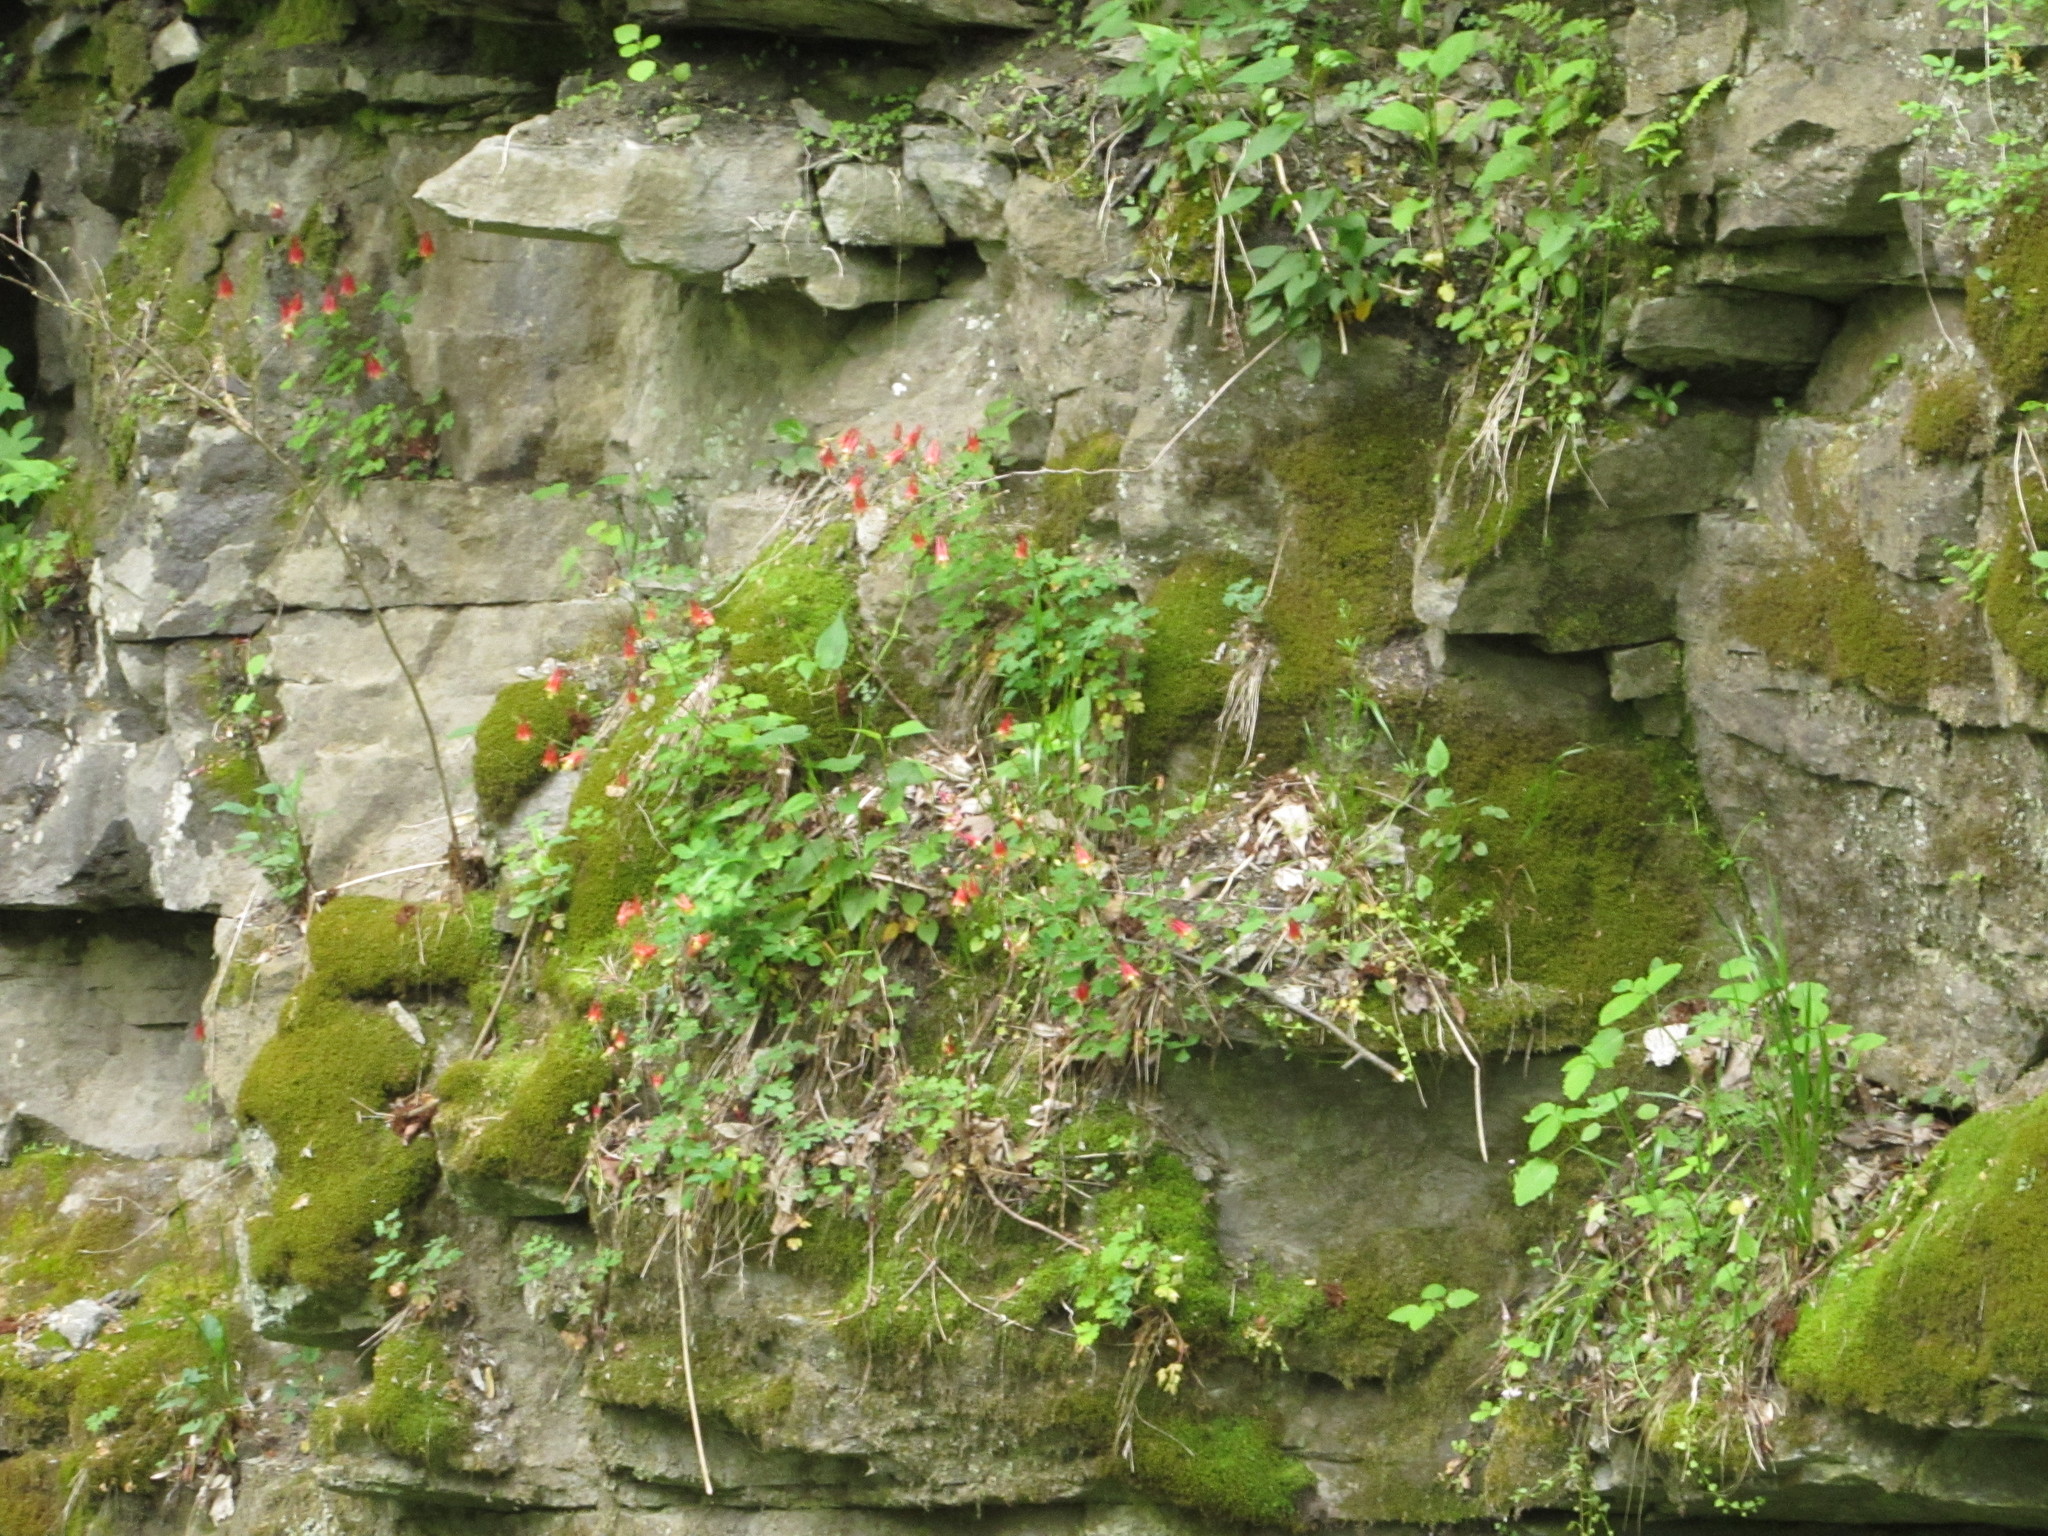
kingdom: Plantae
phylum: Tracheophyta
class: Magnoliopsida
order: Ranunculales
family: Ranunculaceae
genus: Aquilegia
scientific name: Aquilegia canadensis
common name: American columbine
